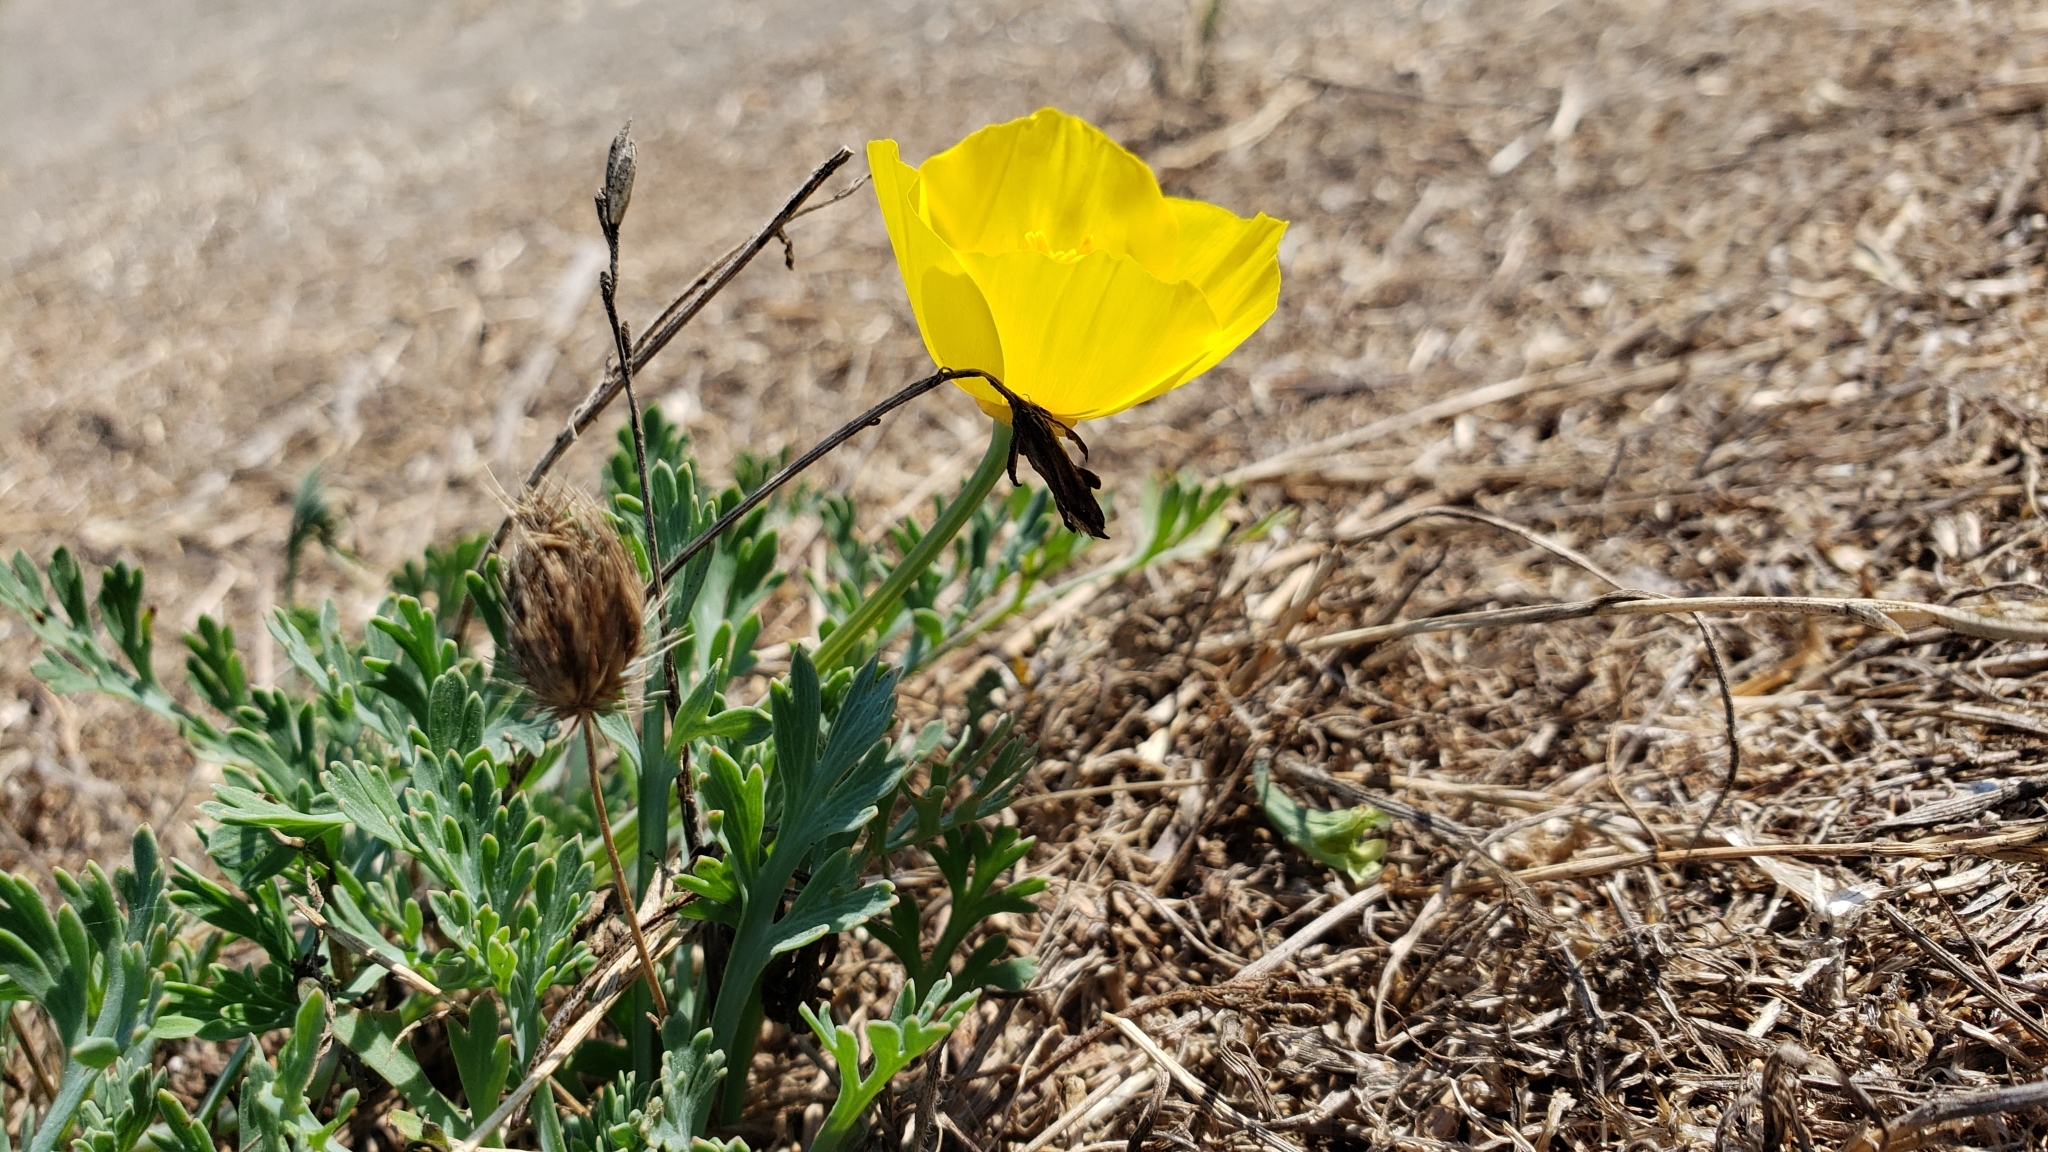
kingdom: Plantae
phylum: Tracheophyta
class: Magnoliopsida
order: Ranunculales
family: Papaveraceae
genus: Eschscholzia
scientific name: Eschscholzia californica
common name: California poppy
